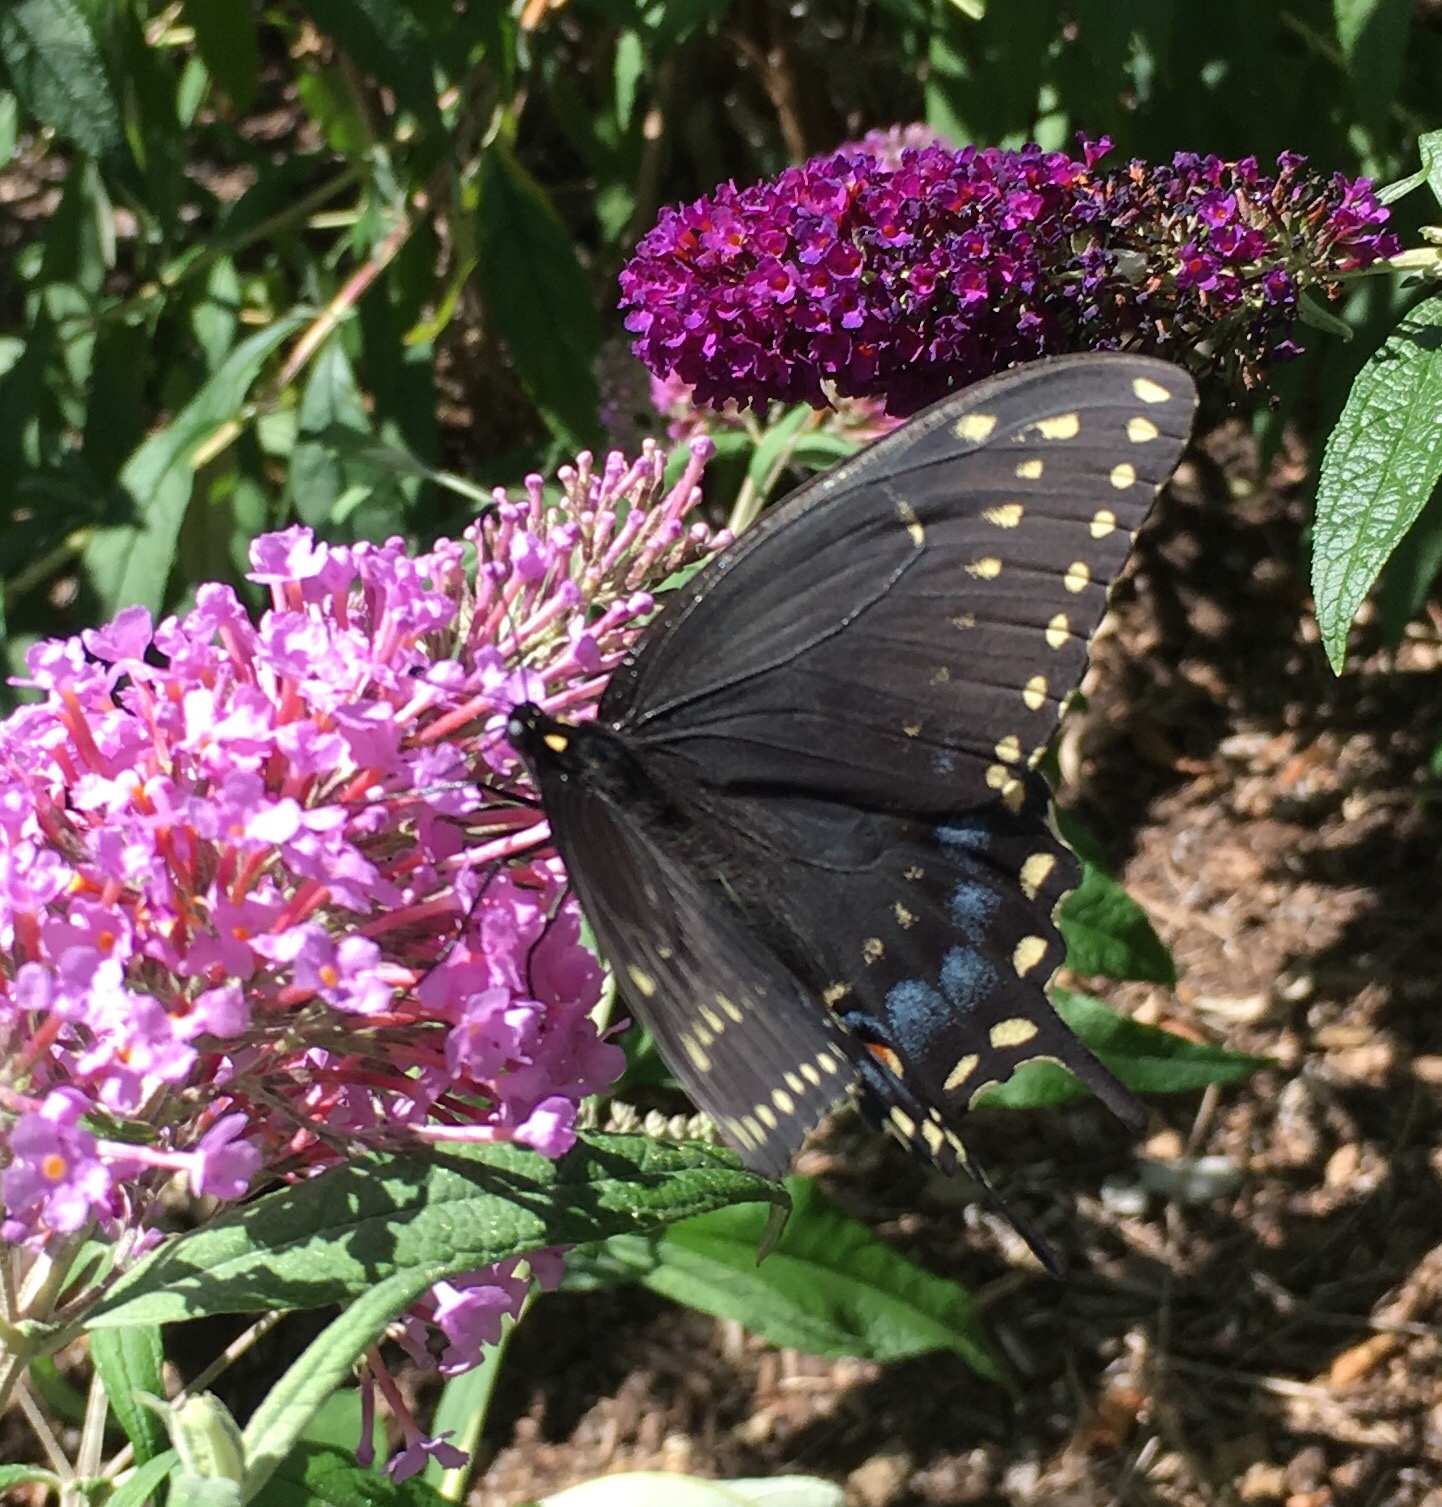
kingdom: Animalia
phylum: Arthropoda
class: Insecta
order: Lepidoptera
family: Papilionidae
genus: Papilio
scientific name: Papilio polyxenes
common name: Black swallowtail
